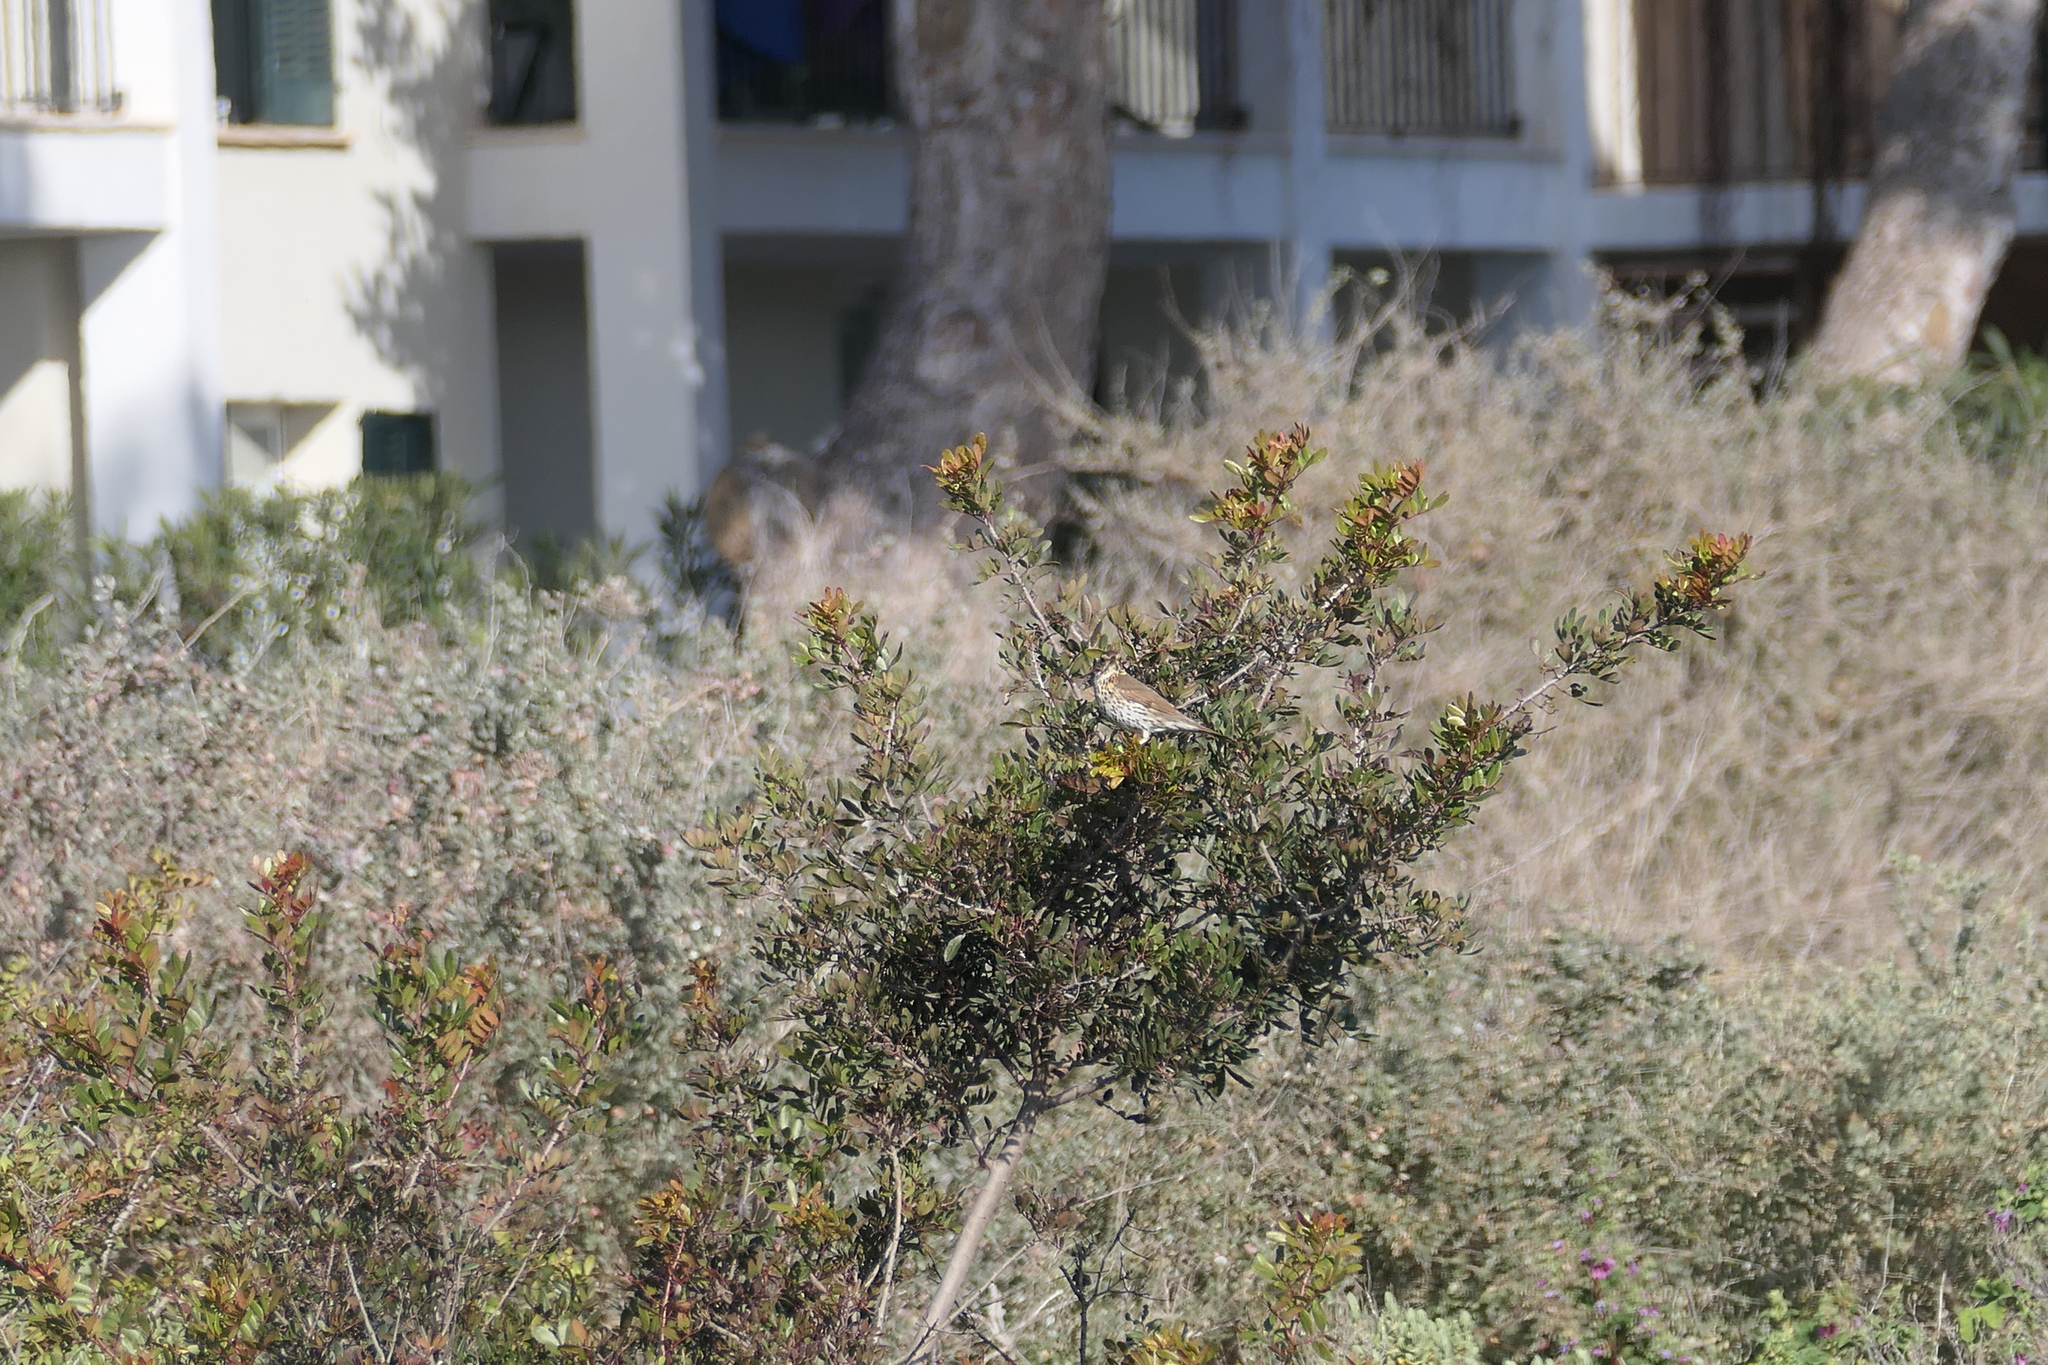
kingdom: Animalia
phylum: Chordata
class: Aves
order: Passeriformes
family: Turdidae
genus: Turdus
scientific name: Turdus philomelos
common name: Song thrush
